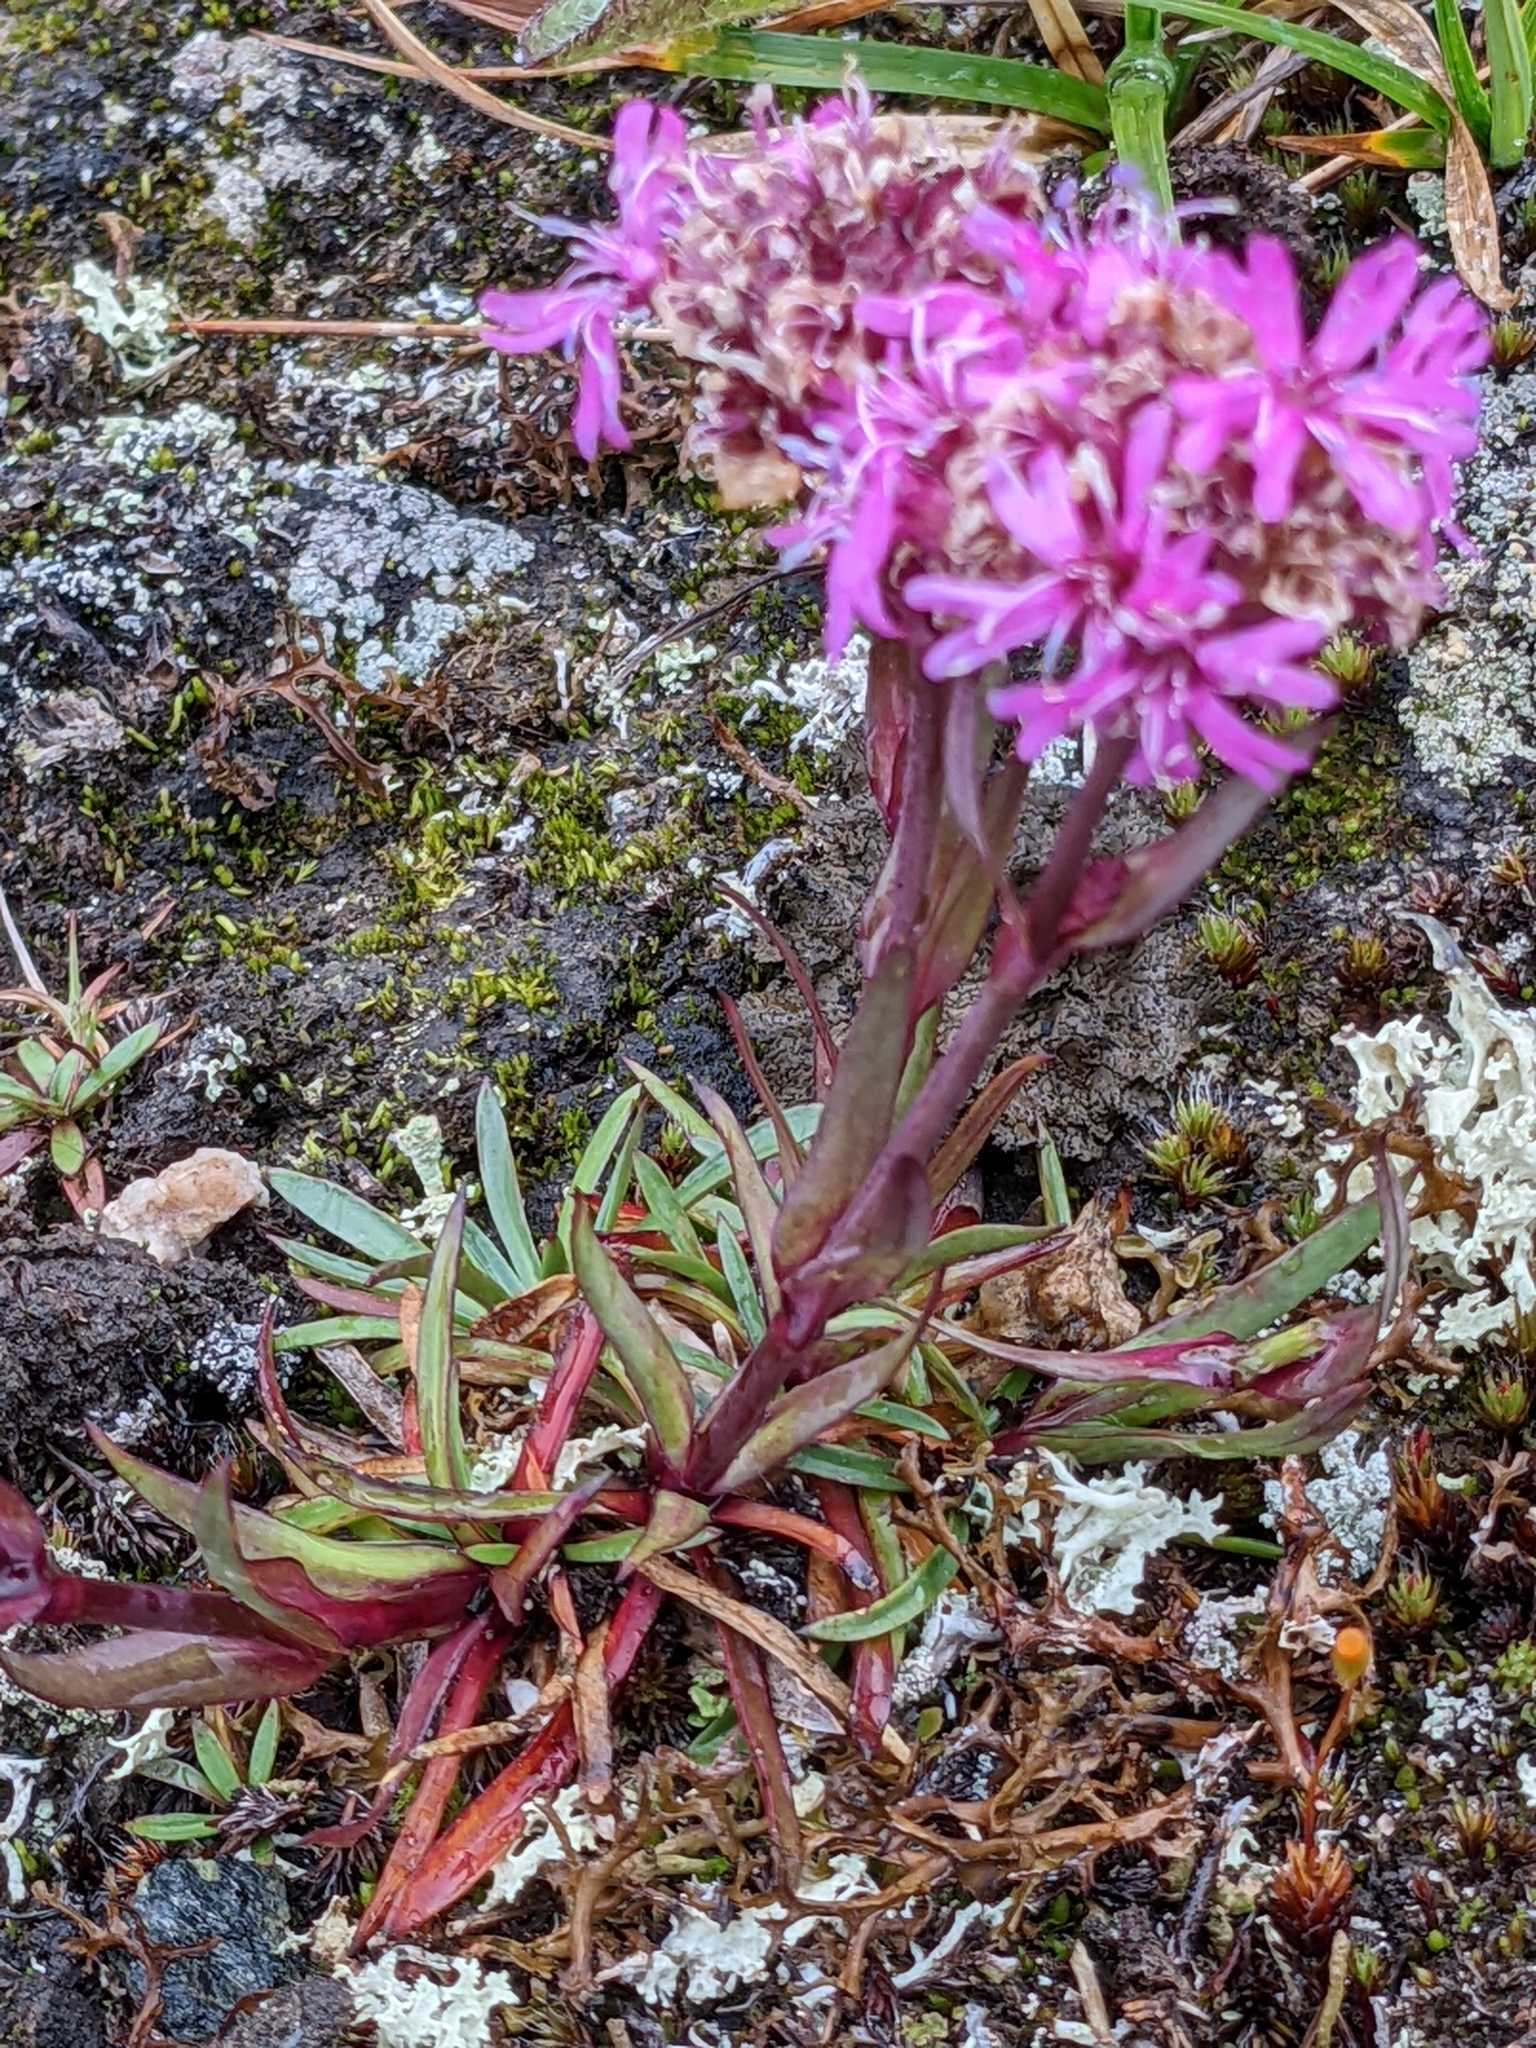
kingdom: Plantae
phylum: Tracheophyta
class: Magnoliopsida
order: Caryophyllales
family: Caryophyllaceae
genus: Viscaria
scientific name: Viscaria alpina
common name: Alpine campion
